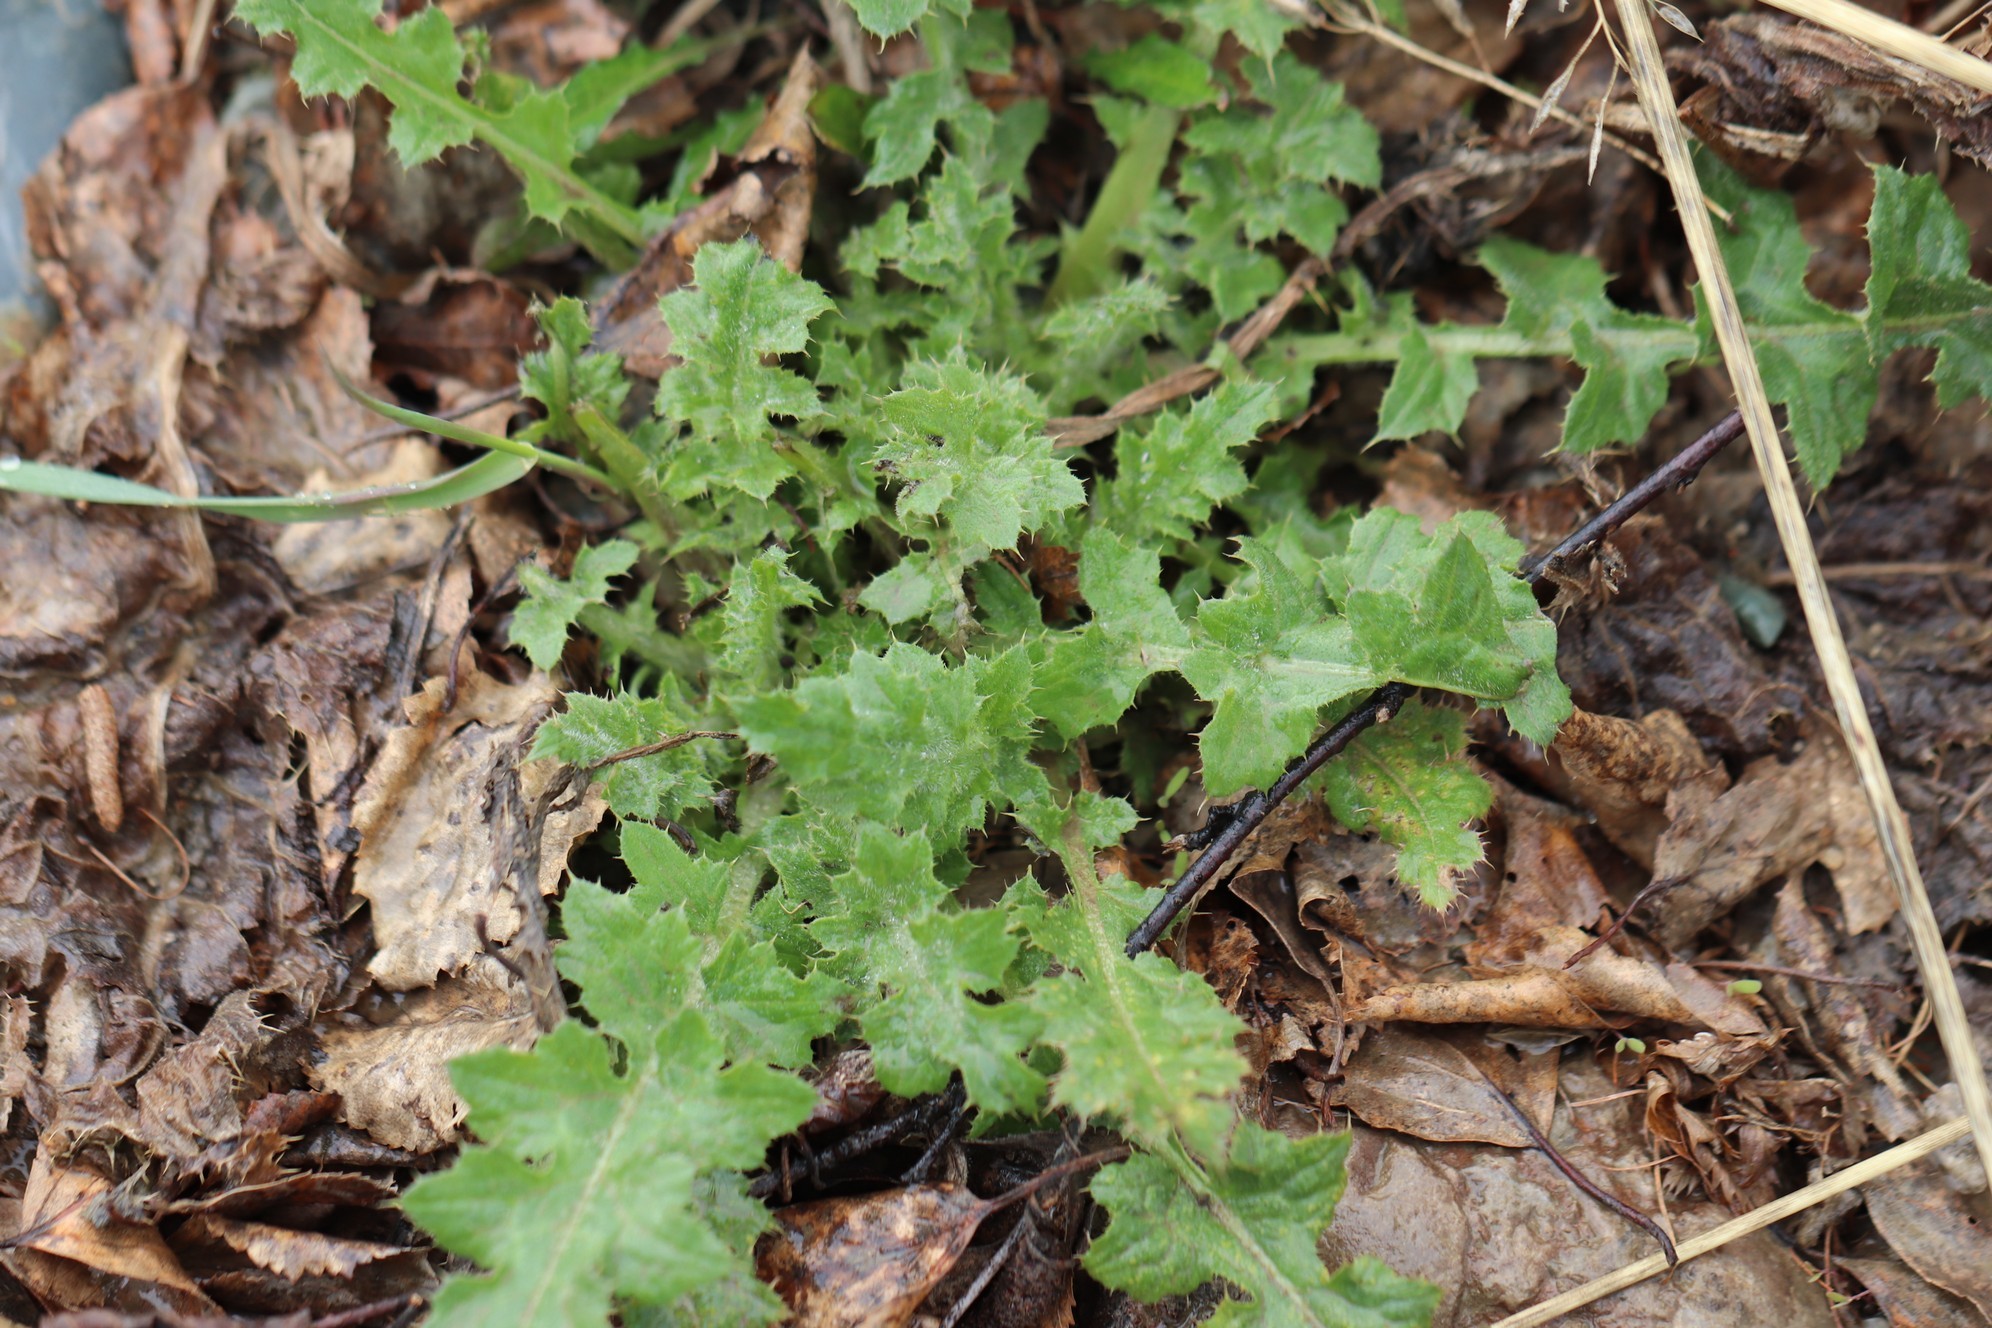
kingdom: Plantae
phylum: Tracheophyta
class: Magnoliopsida
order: Asterales
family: Asteraceae
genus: Carduus
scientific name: Carduus crispus
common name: Welted thistle
